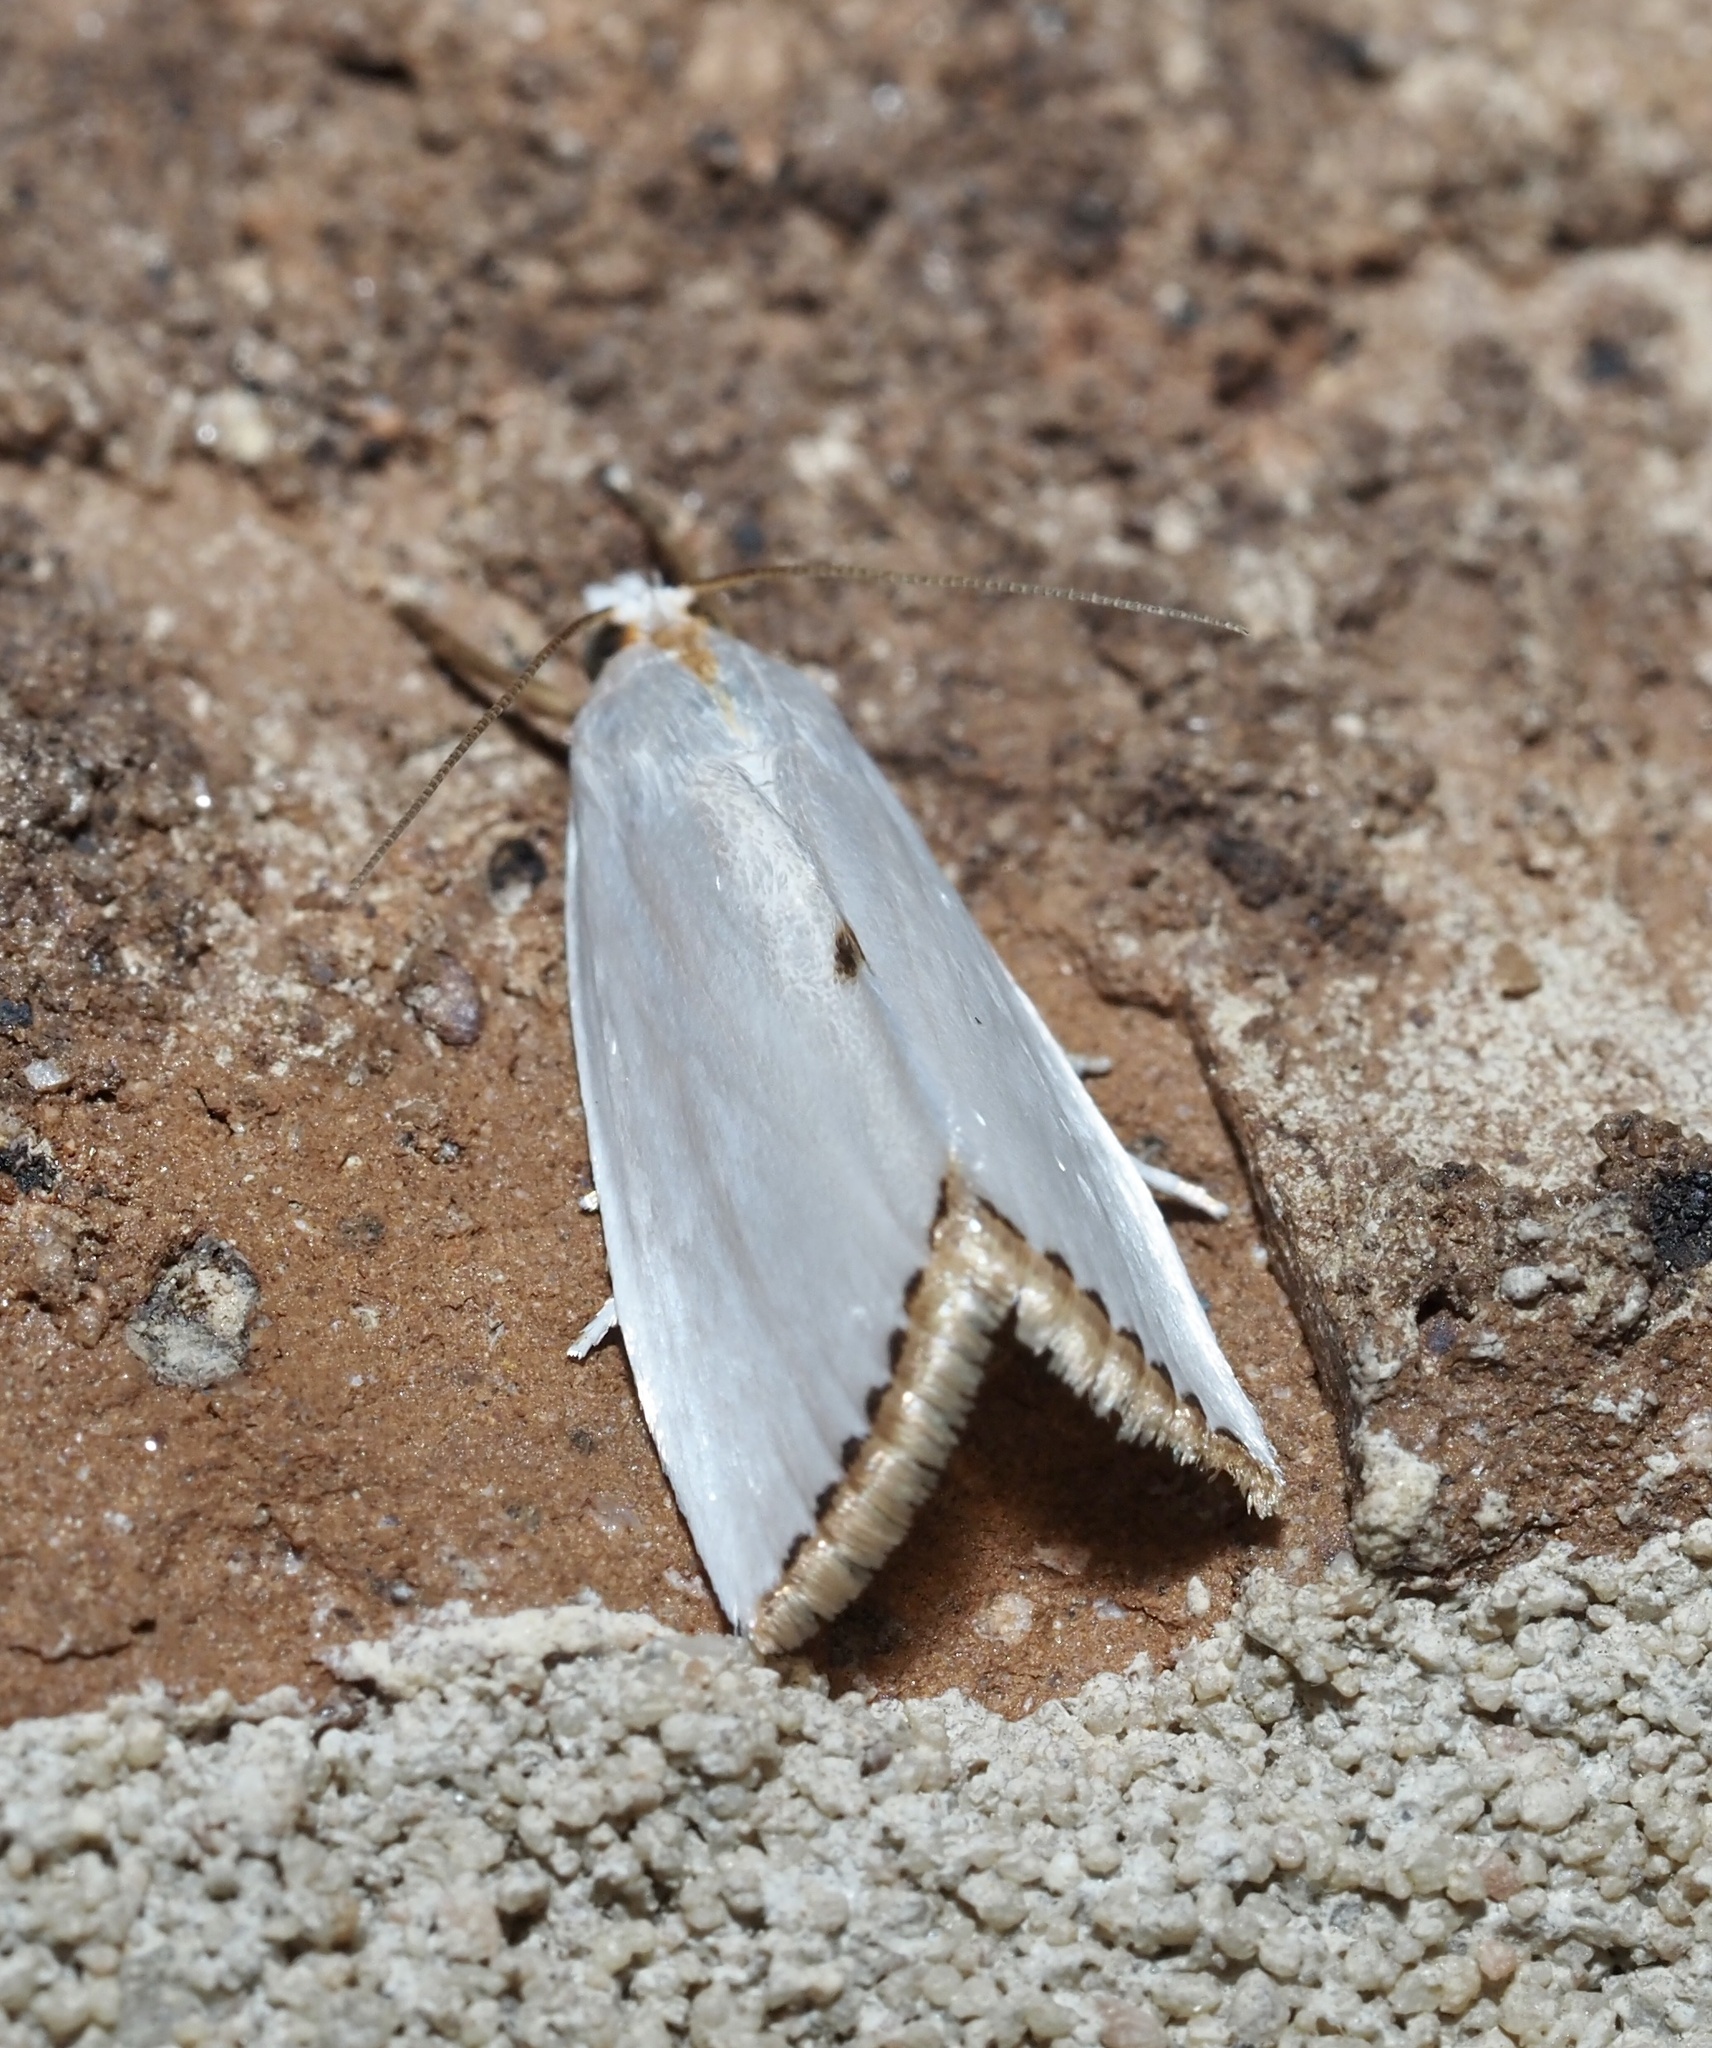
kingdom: Animalia
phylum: Arthropoda
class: Insecta
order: Lepidoptera
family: Crambidae
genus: Argyria
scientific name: Argyria nivalis
